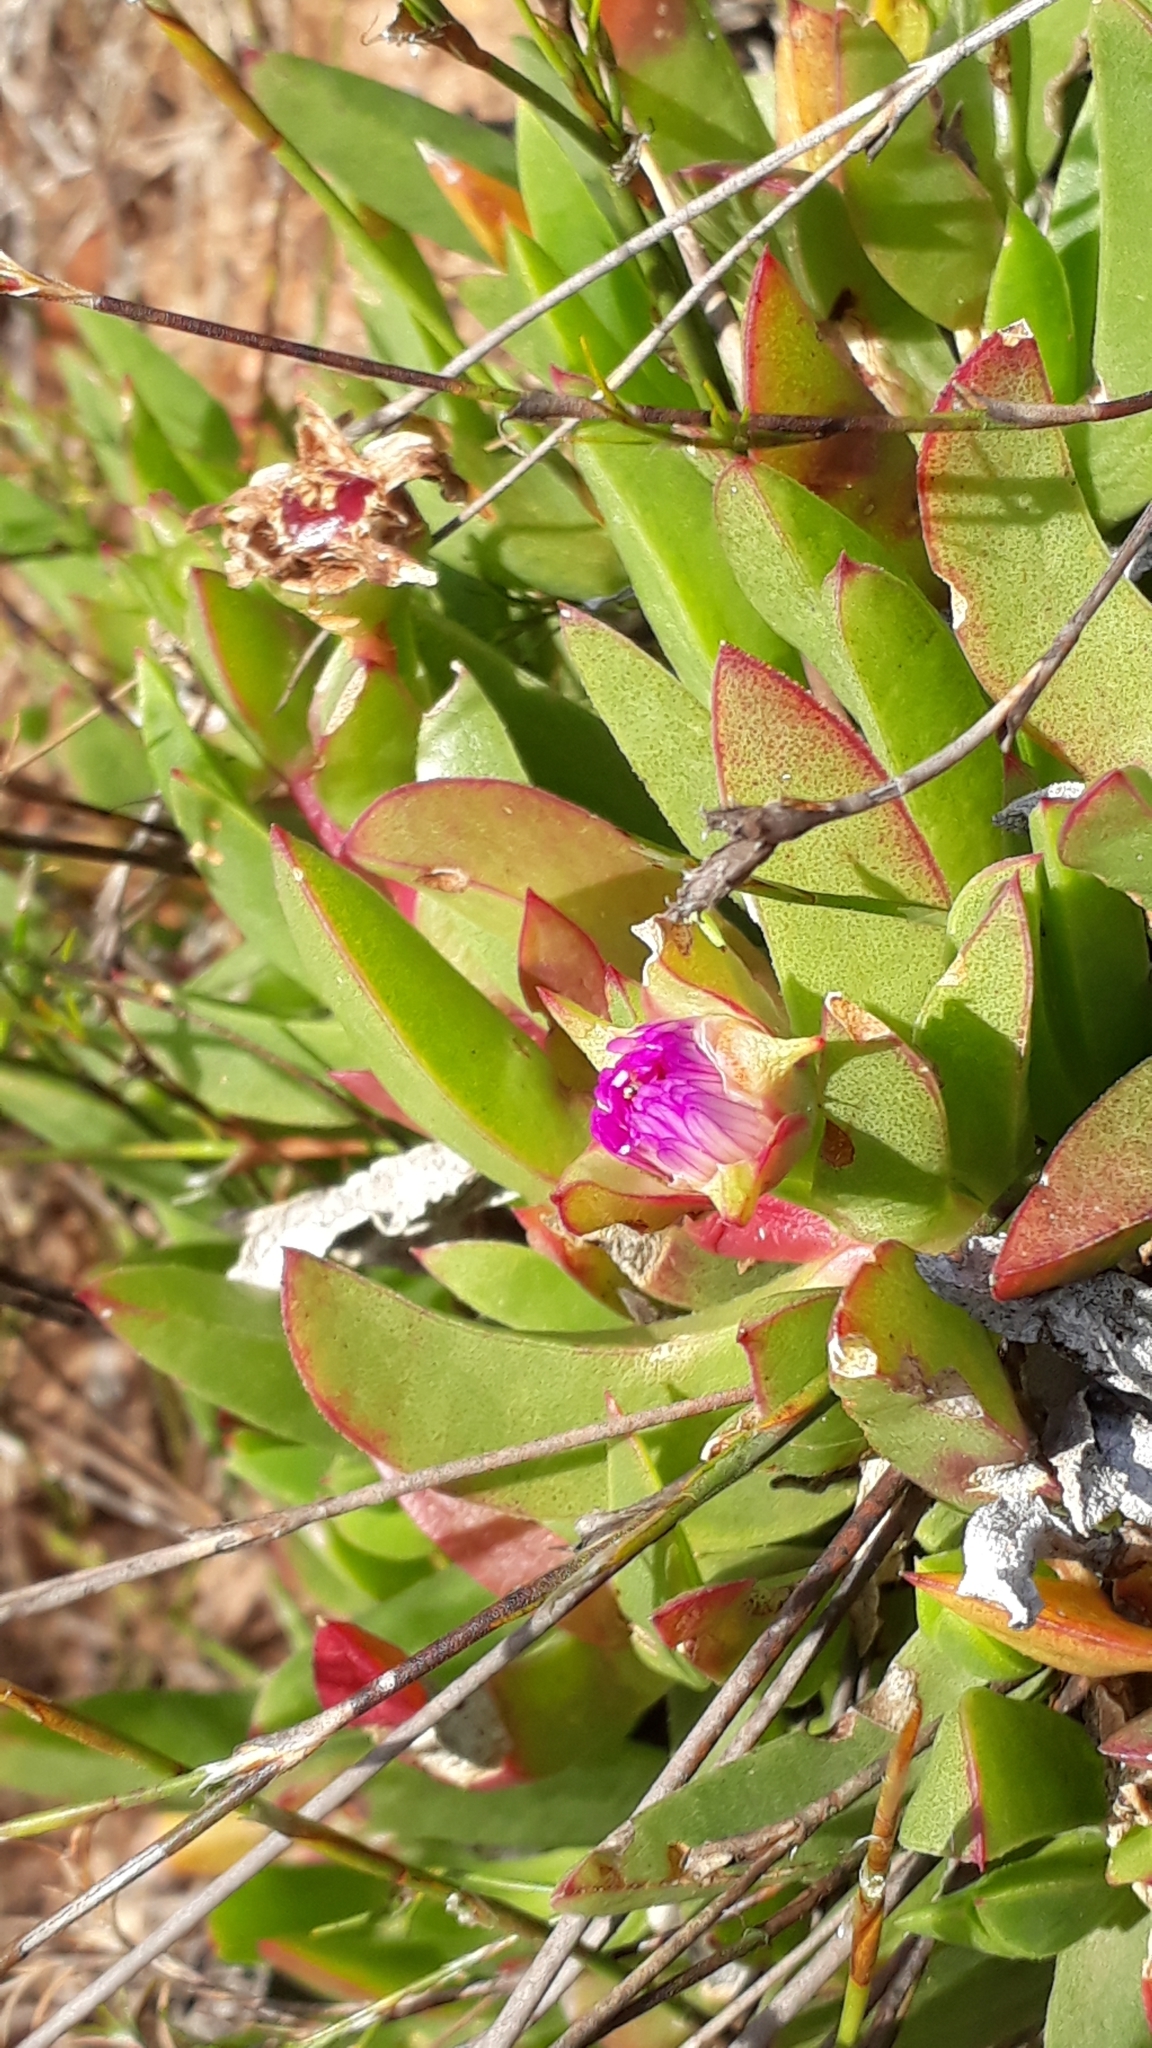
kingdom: Plantae
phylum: Tracheophyta
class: Magnoliopsida
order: Caryophyllales
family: Aizoaceae
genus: Carpobrotus
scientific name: Carpobrotus acinaciformis
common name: Sally-my-handsome
